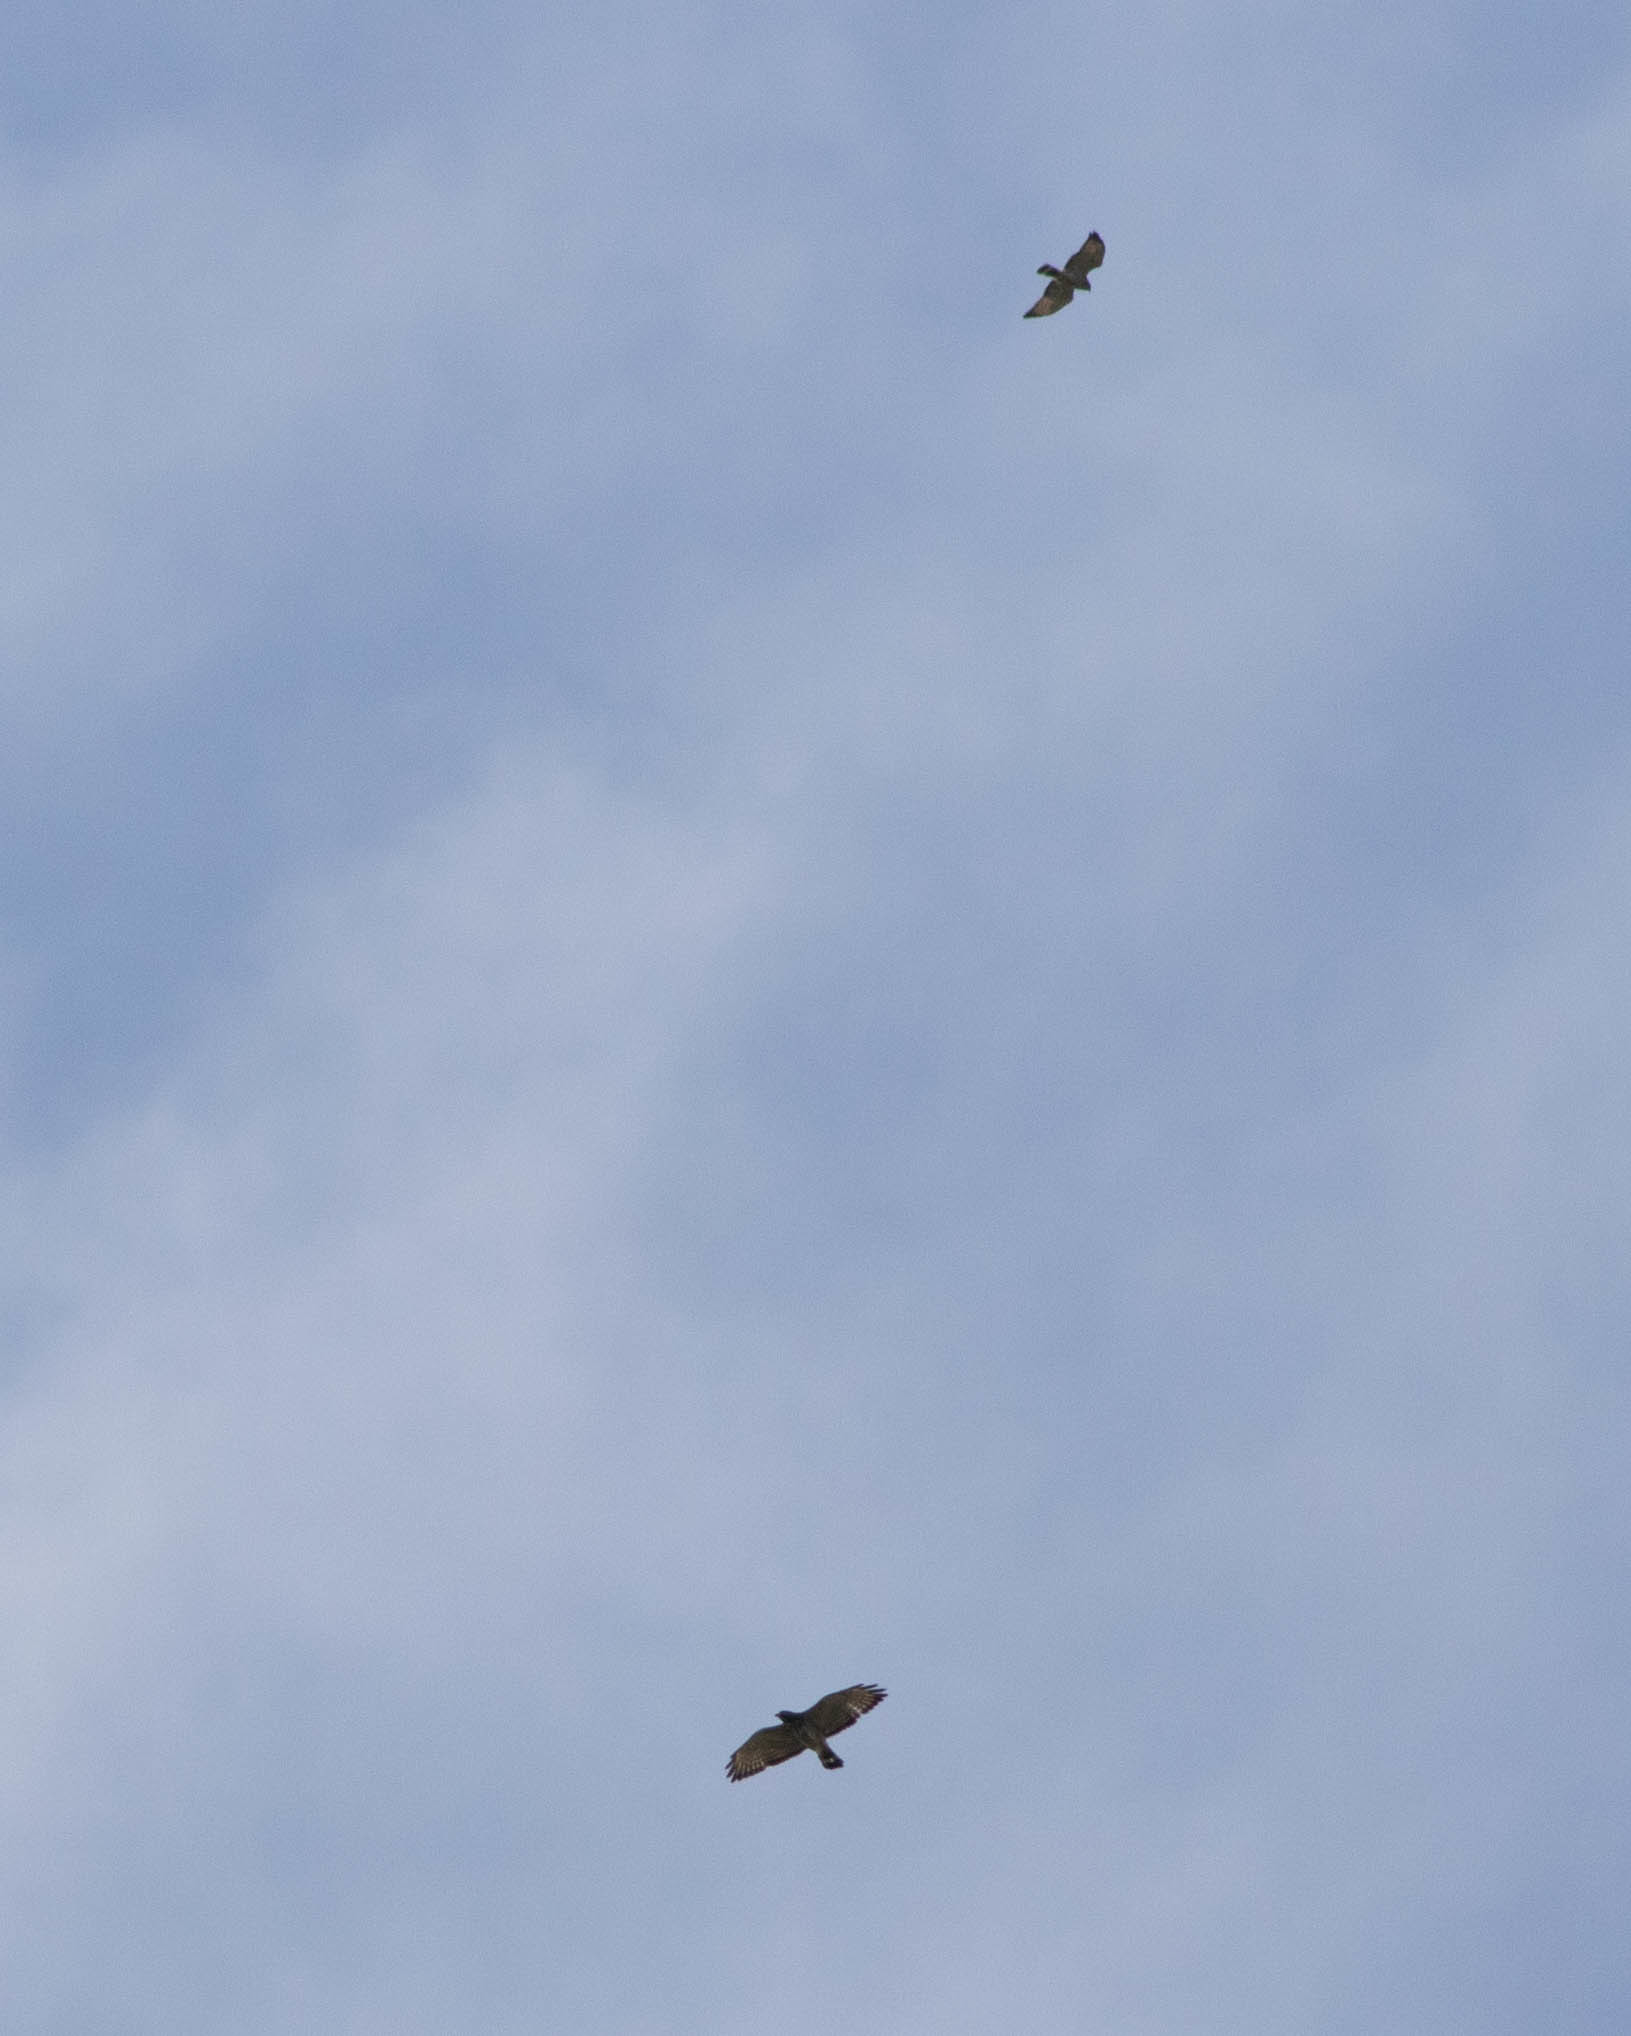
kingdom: Animalia
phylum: Chordata
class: Aves
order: Accipitriformes
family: Accipitridae
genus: Buteo
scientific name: Buteo platypterus
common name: Broad-winged hawk
